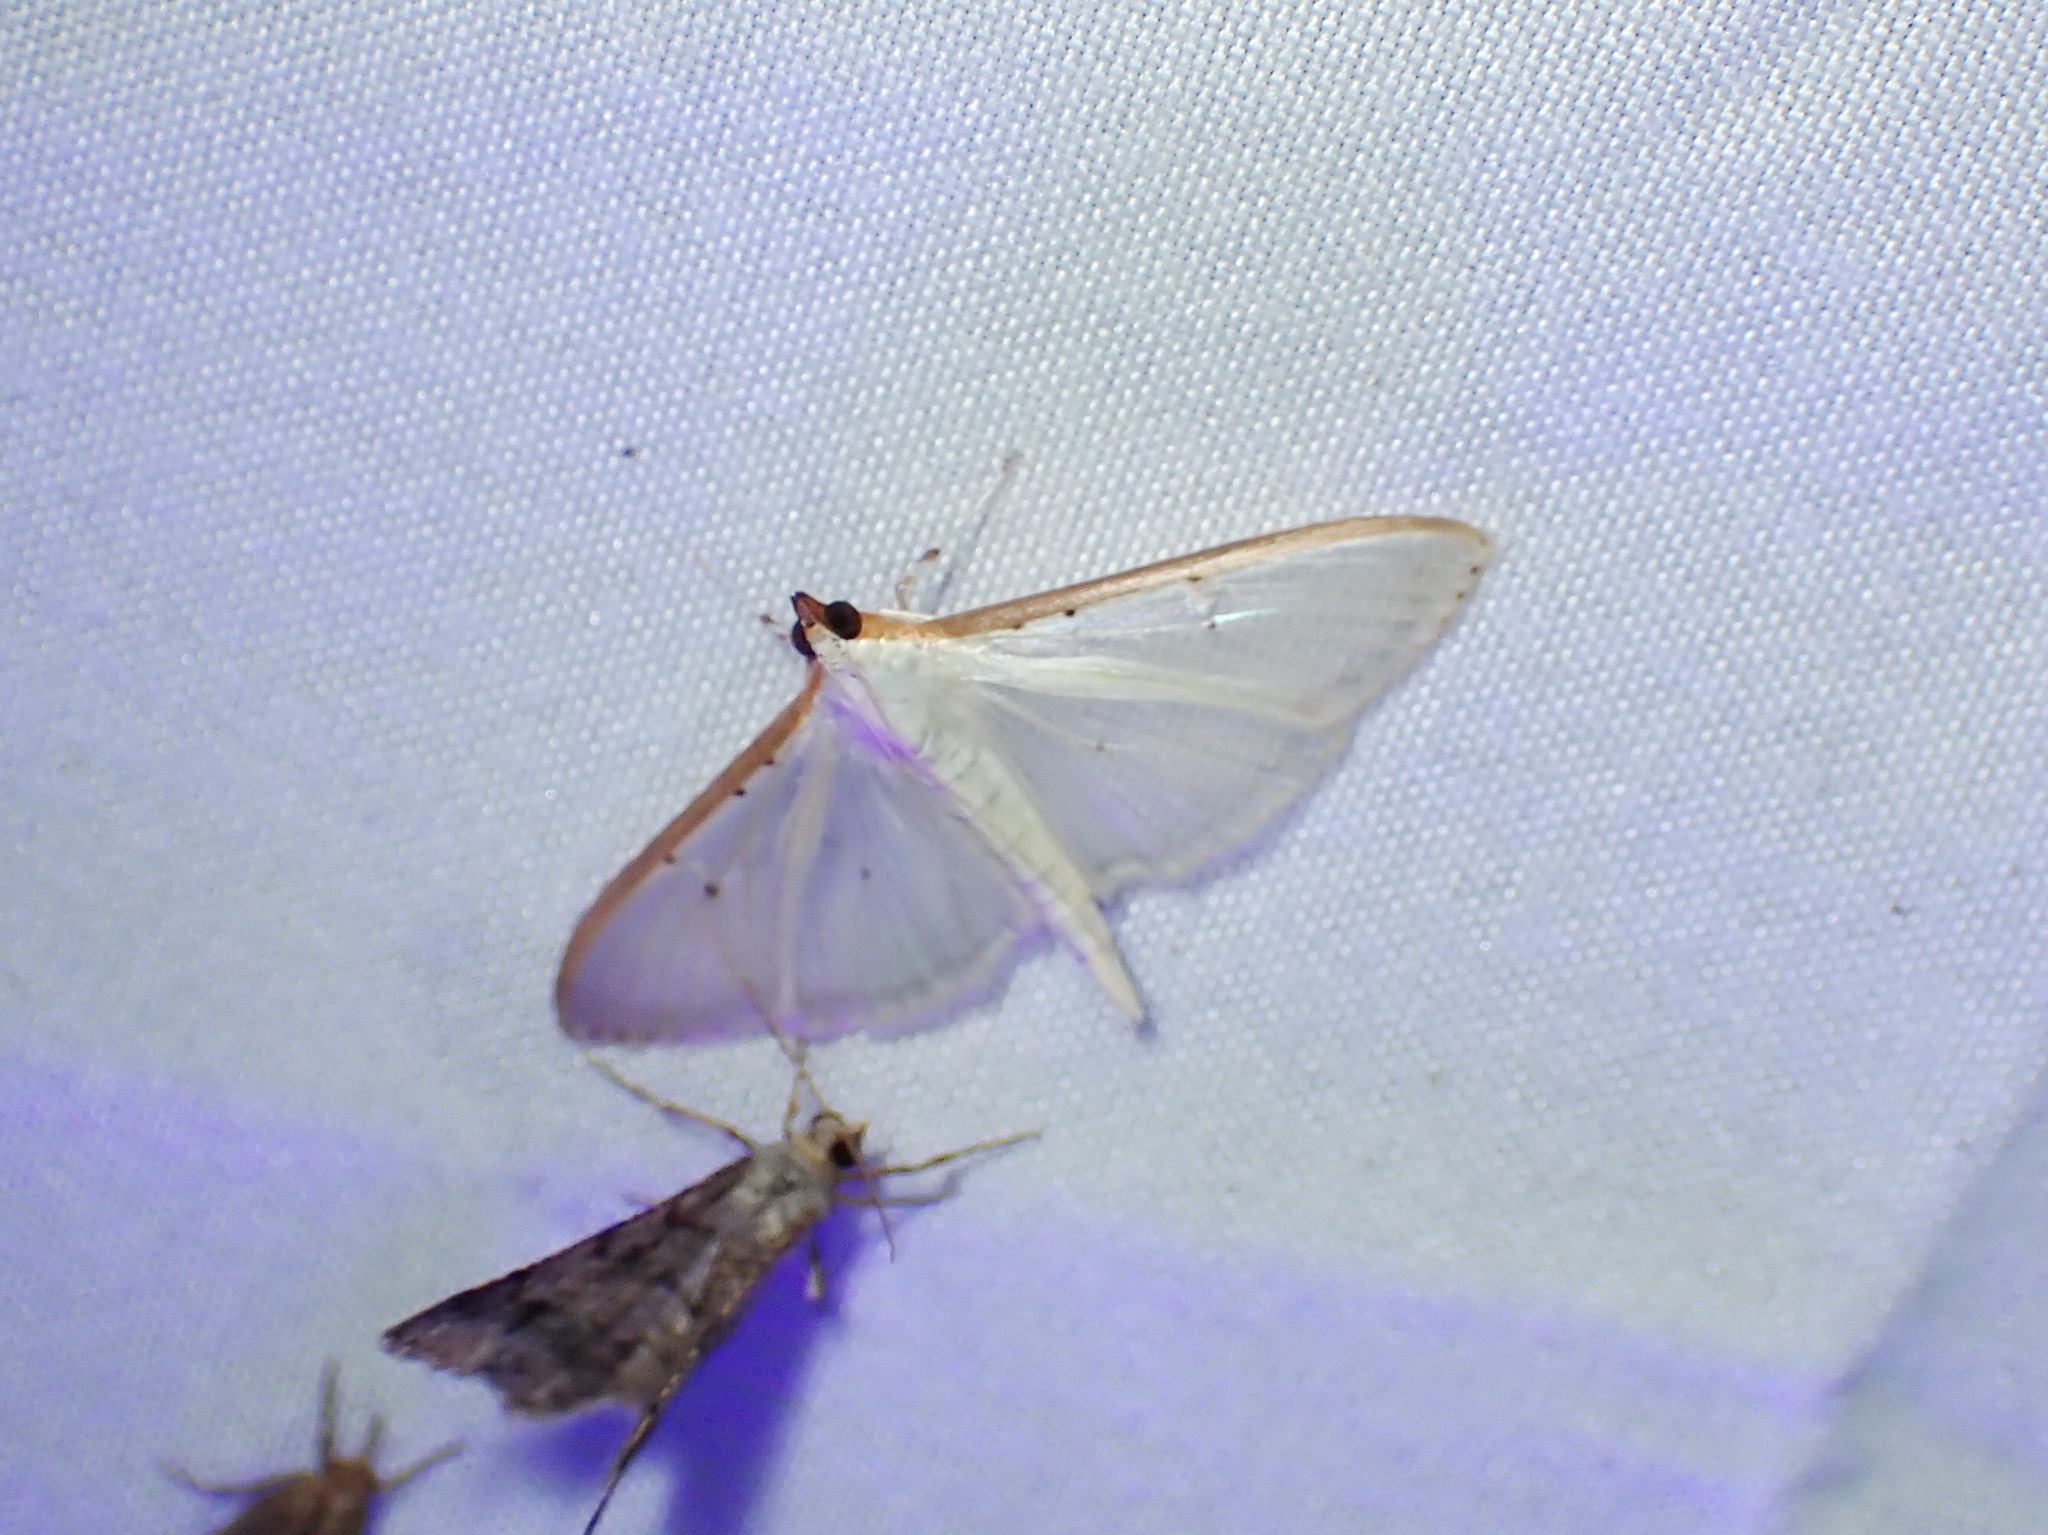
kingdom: Animalia
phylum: Arthropoda
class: Insecta
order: Lepidoptera
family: Crambidae
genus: Palpita
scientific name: Palpita quadristigmalis
